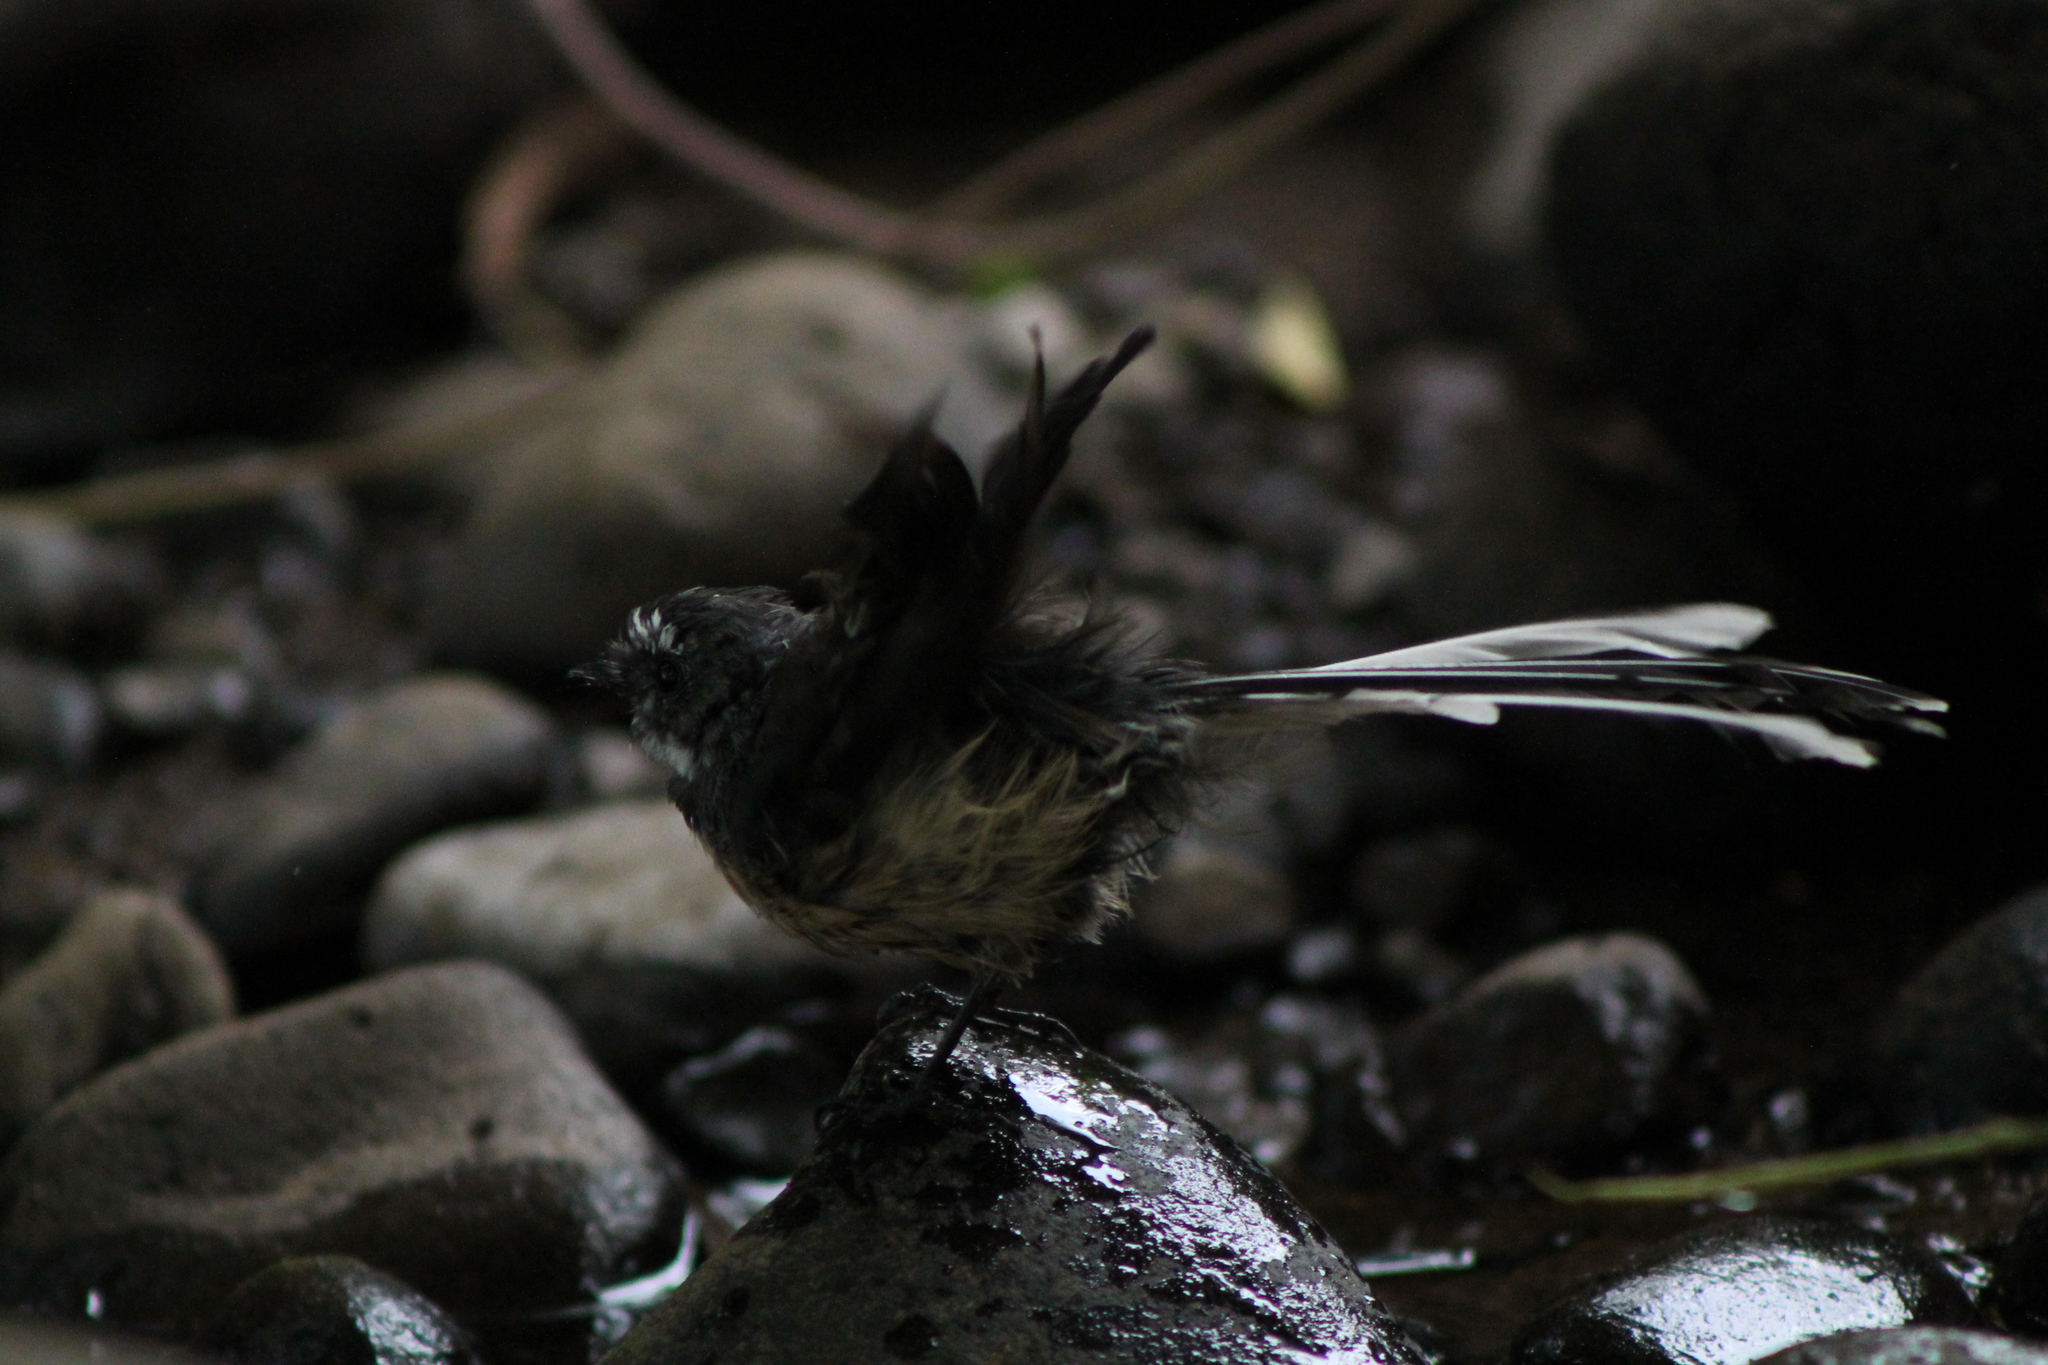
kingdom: Animalia
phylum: Chordata
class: Aves
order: Passeriformes
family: Rhipiduridae
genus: Rhipidura
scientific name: Rhipidura fuliginosa
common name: New zealand fantail
